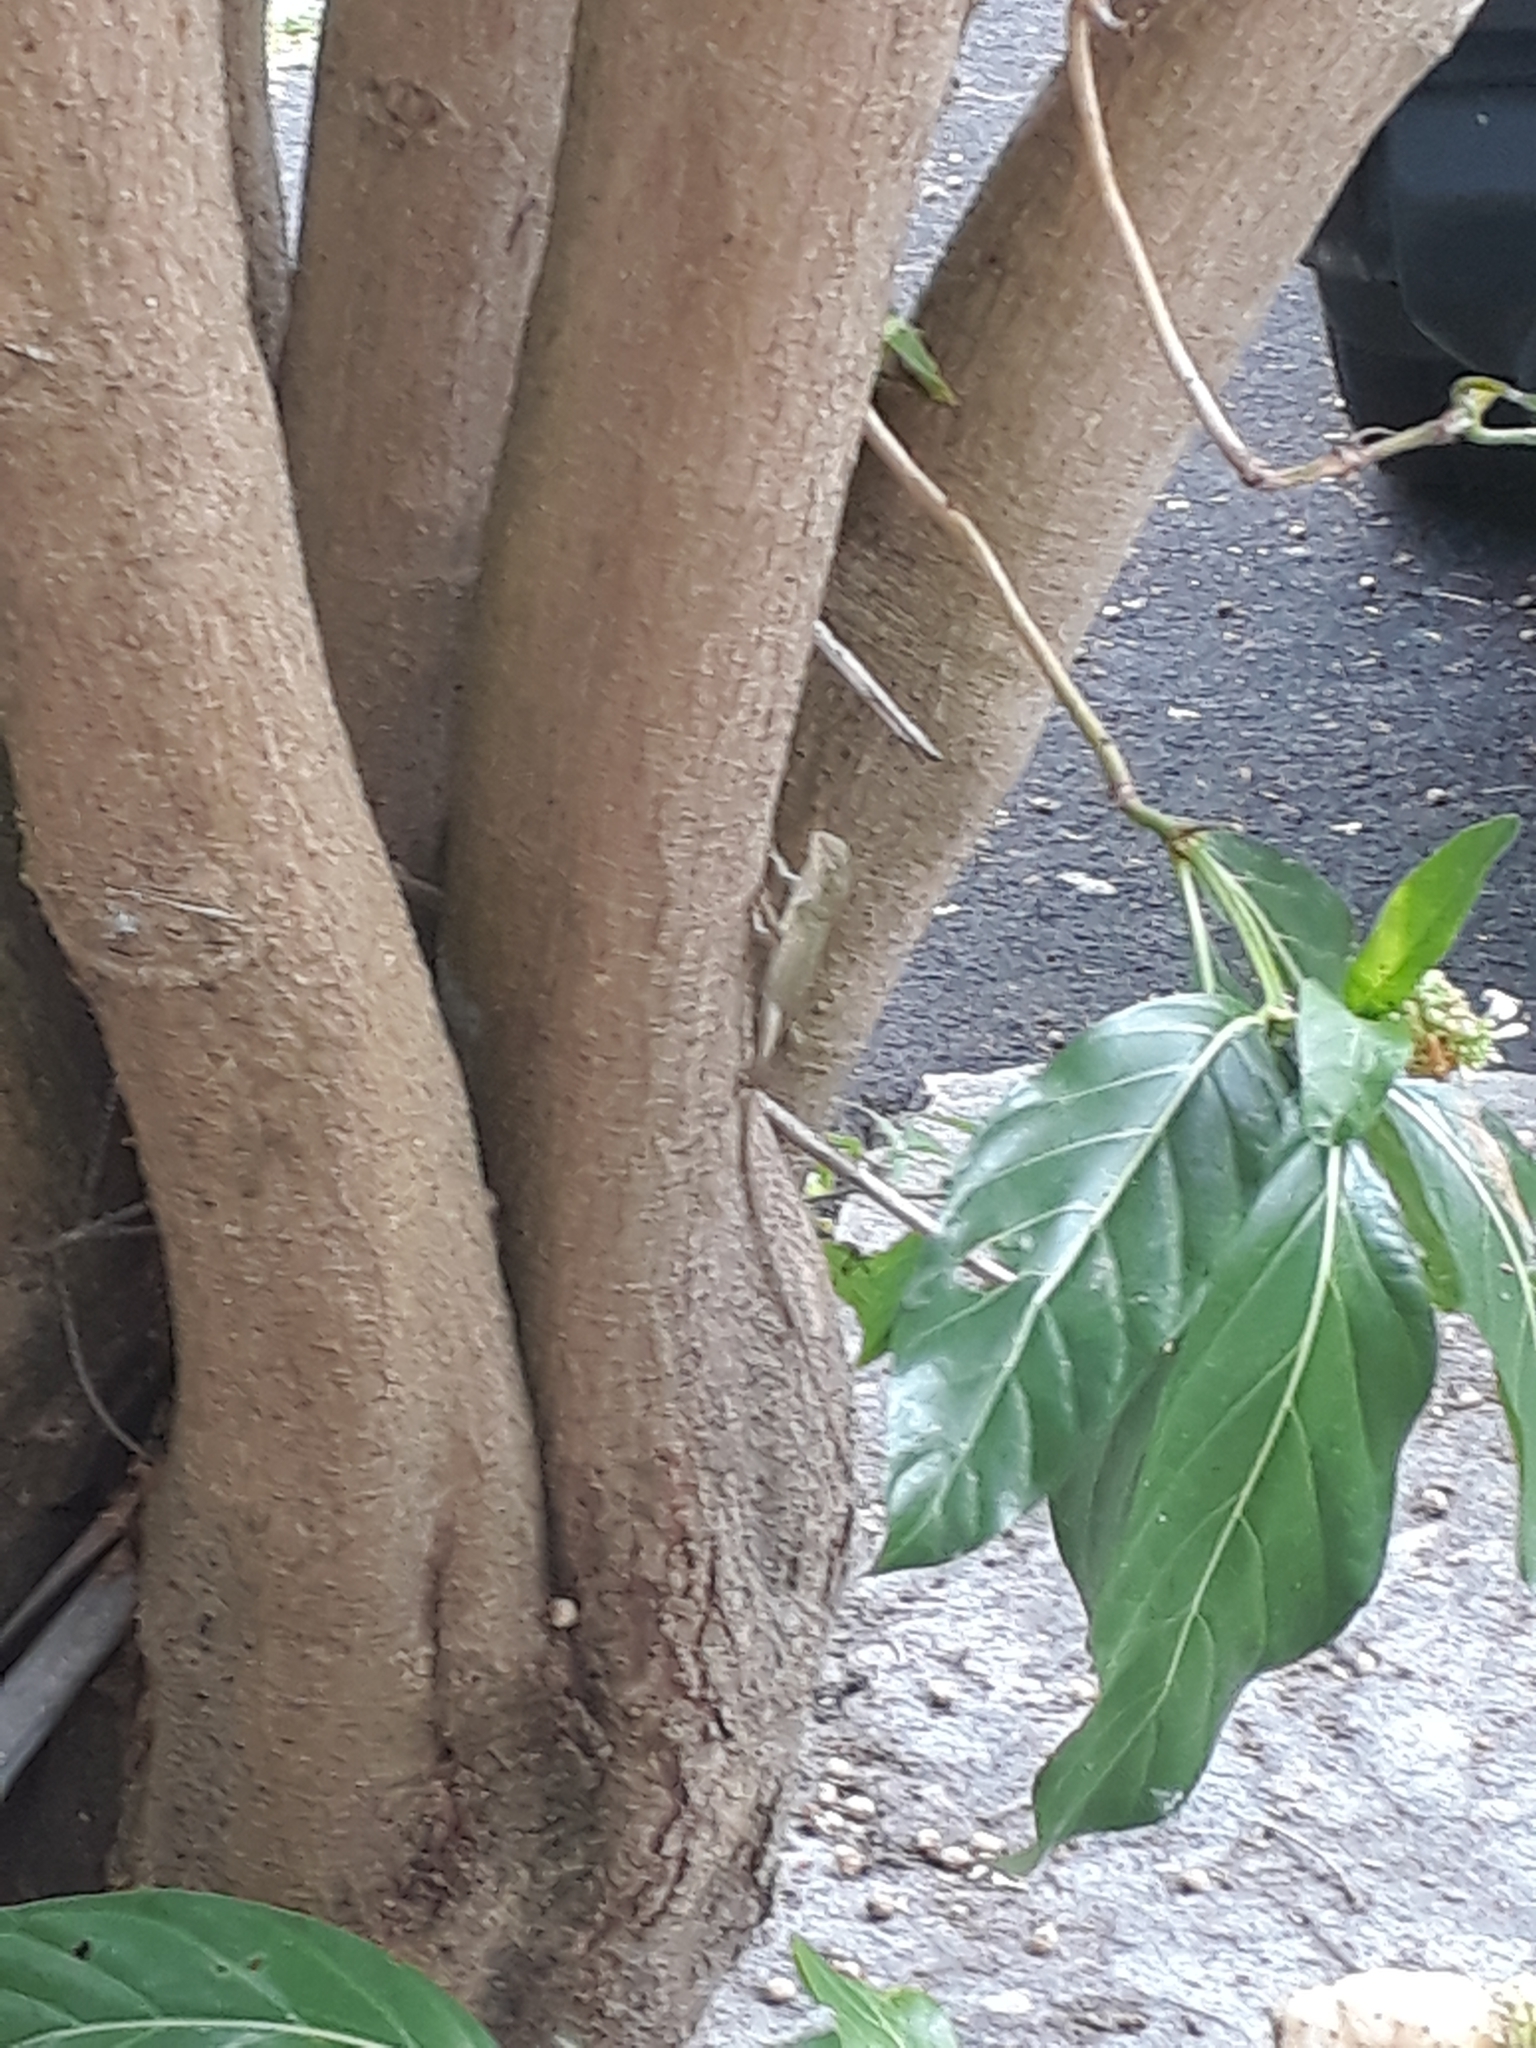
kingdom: Animalia
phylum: Chordata
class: Squamata
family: Agamidae
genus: Calotes
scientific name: Calotes versicolor
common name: Oriental garden lizard
